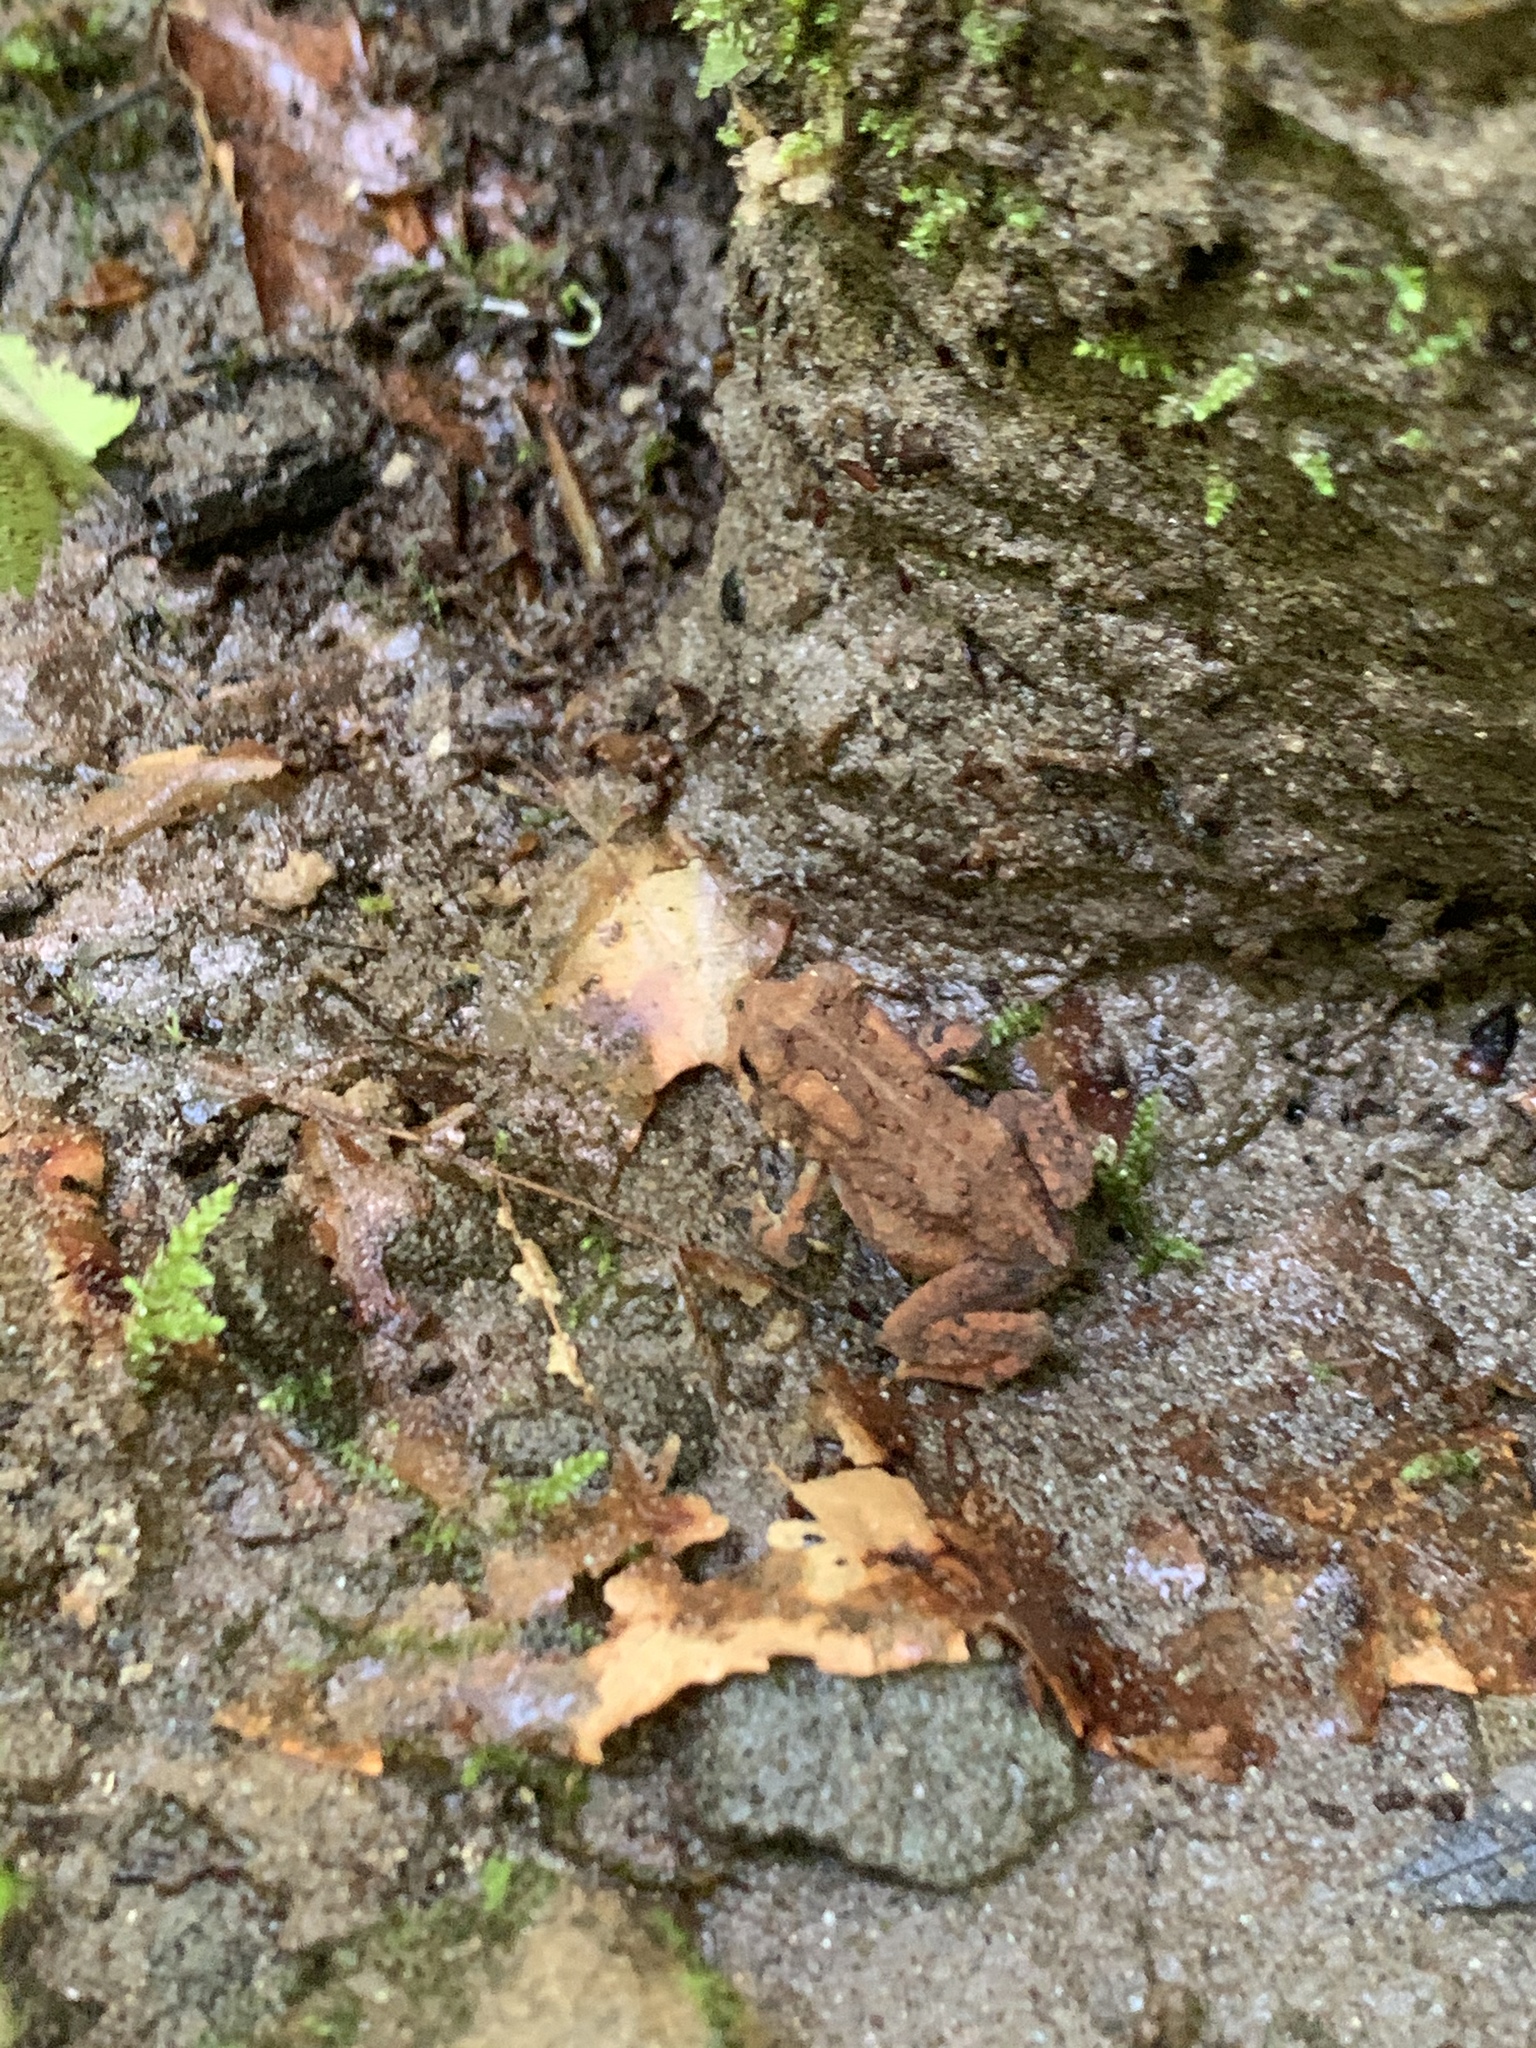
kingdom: Animalia
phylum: Chordata
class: Amphibia
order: Anura
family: Bufonidae
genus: Anaxyrus
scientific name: Anaxyrus americanus
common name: American toad
